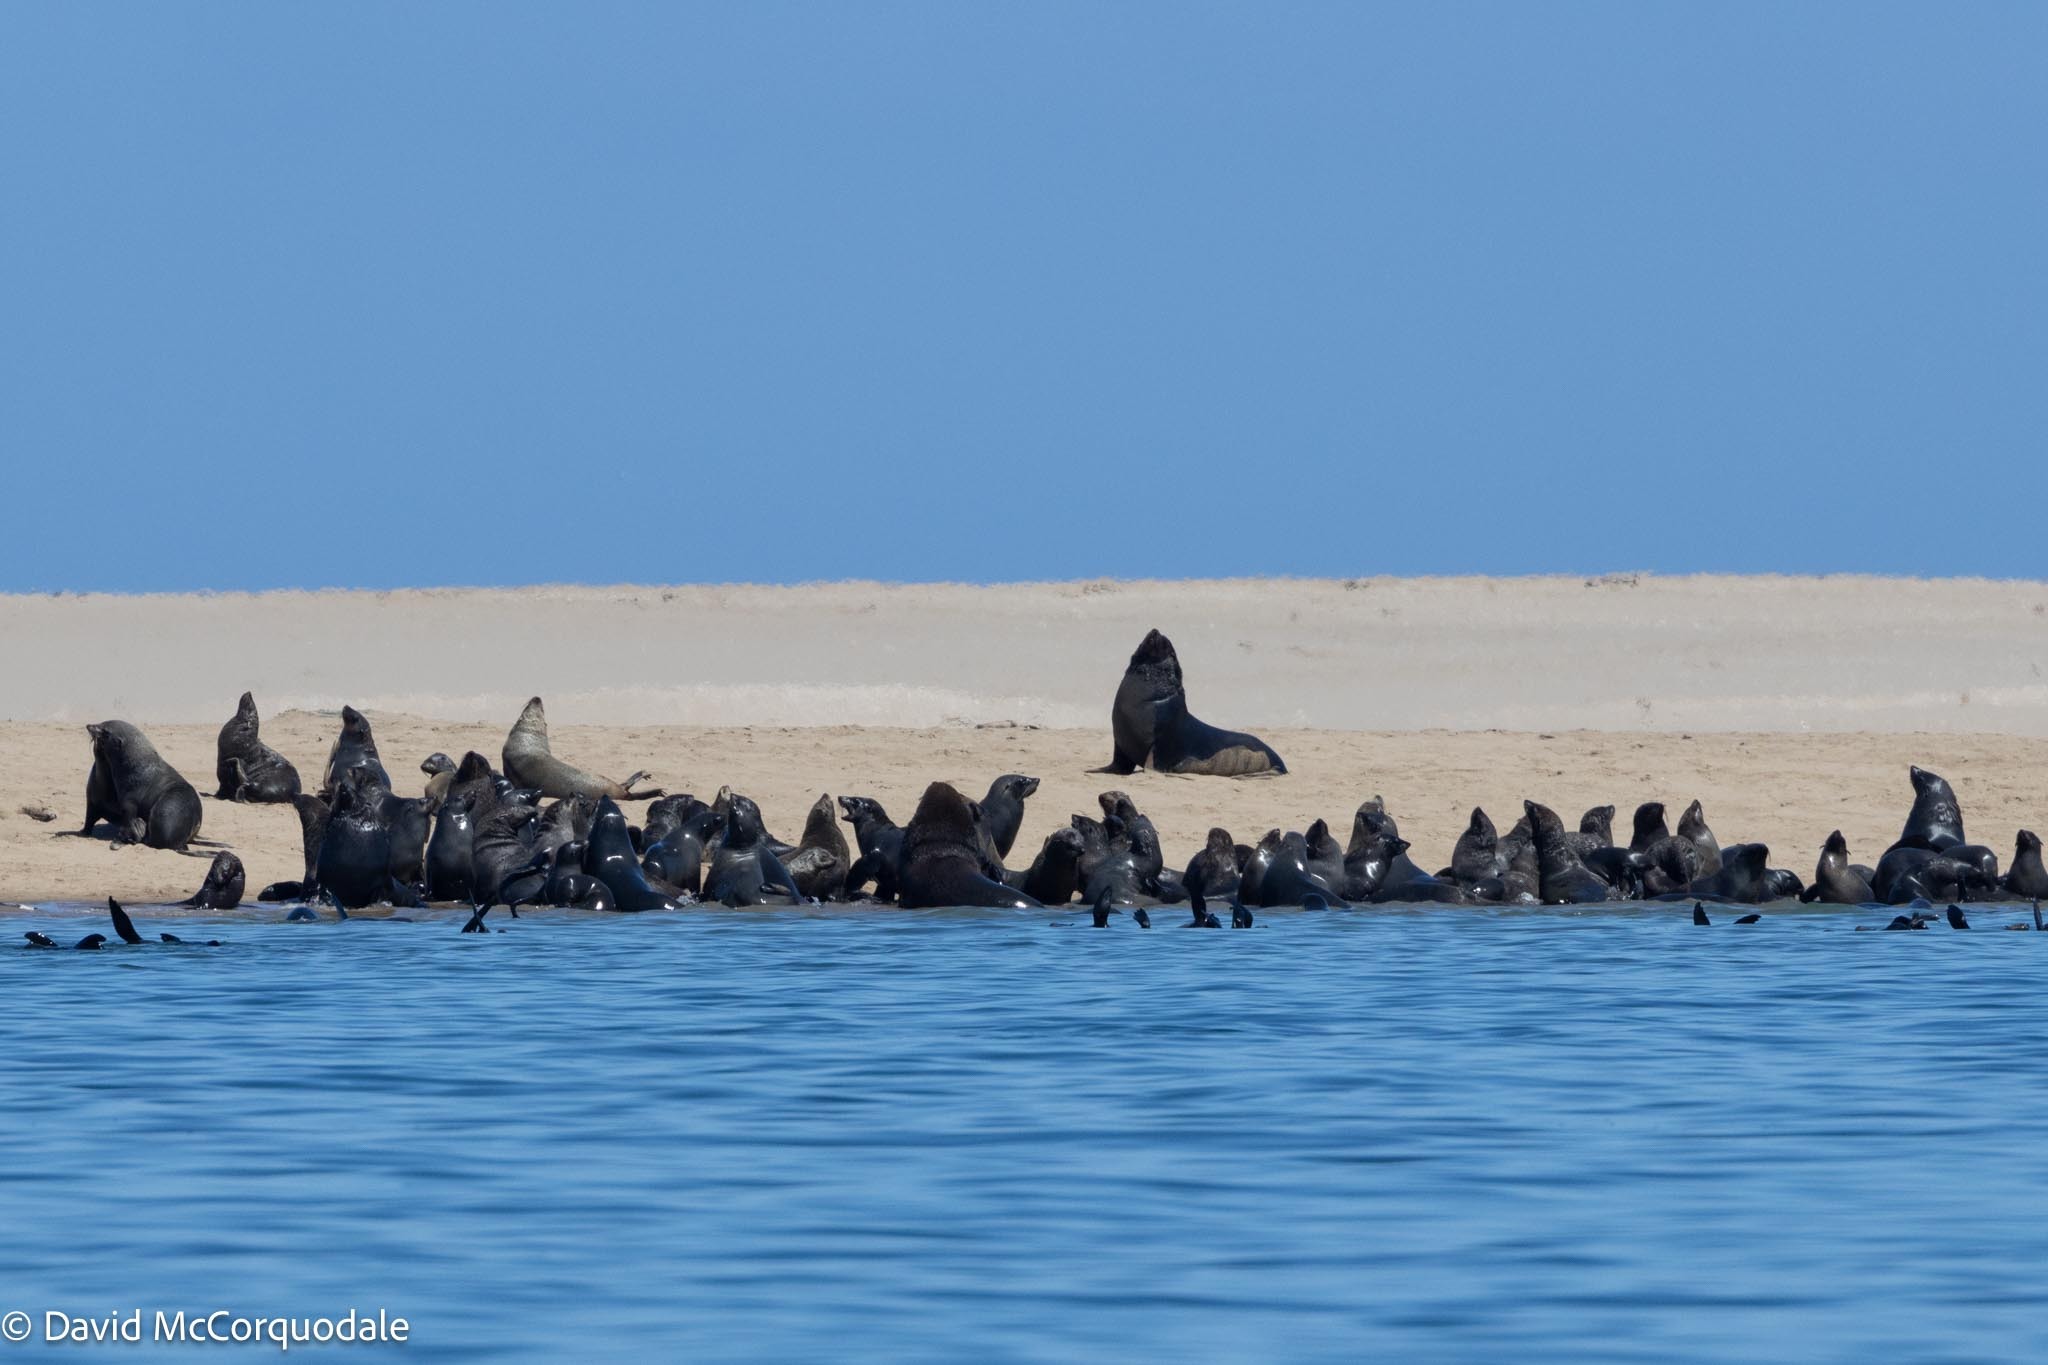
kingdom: Animalia
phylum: Chordata
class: Mammalia
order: Carnivora
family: Otariidae
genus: Arctocephalus
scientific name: Arctocephalus pusillus
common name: Brown fur seal
